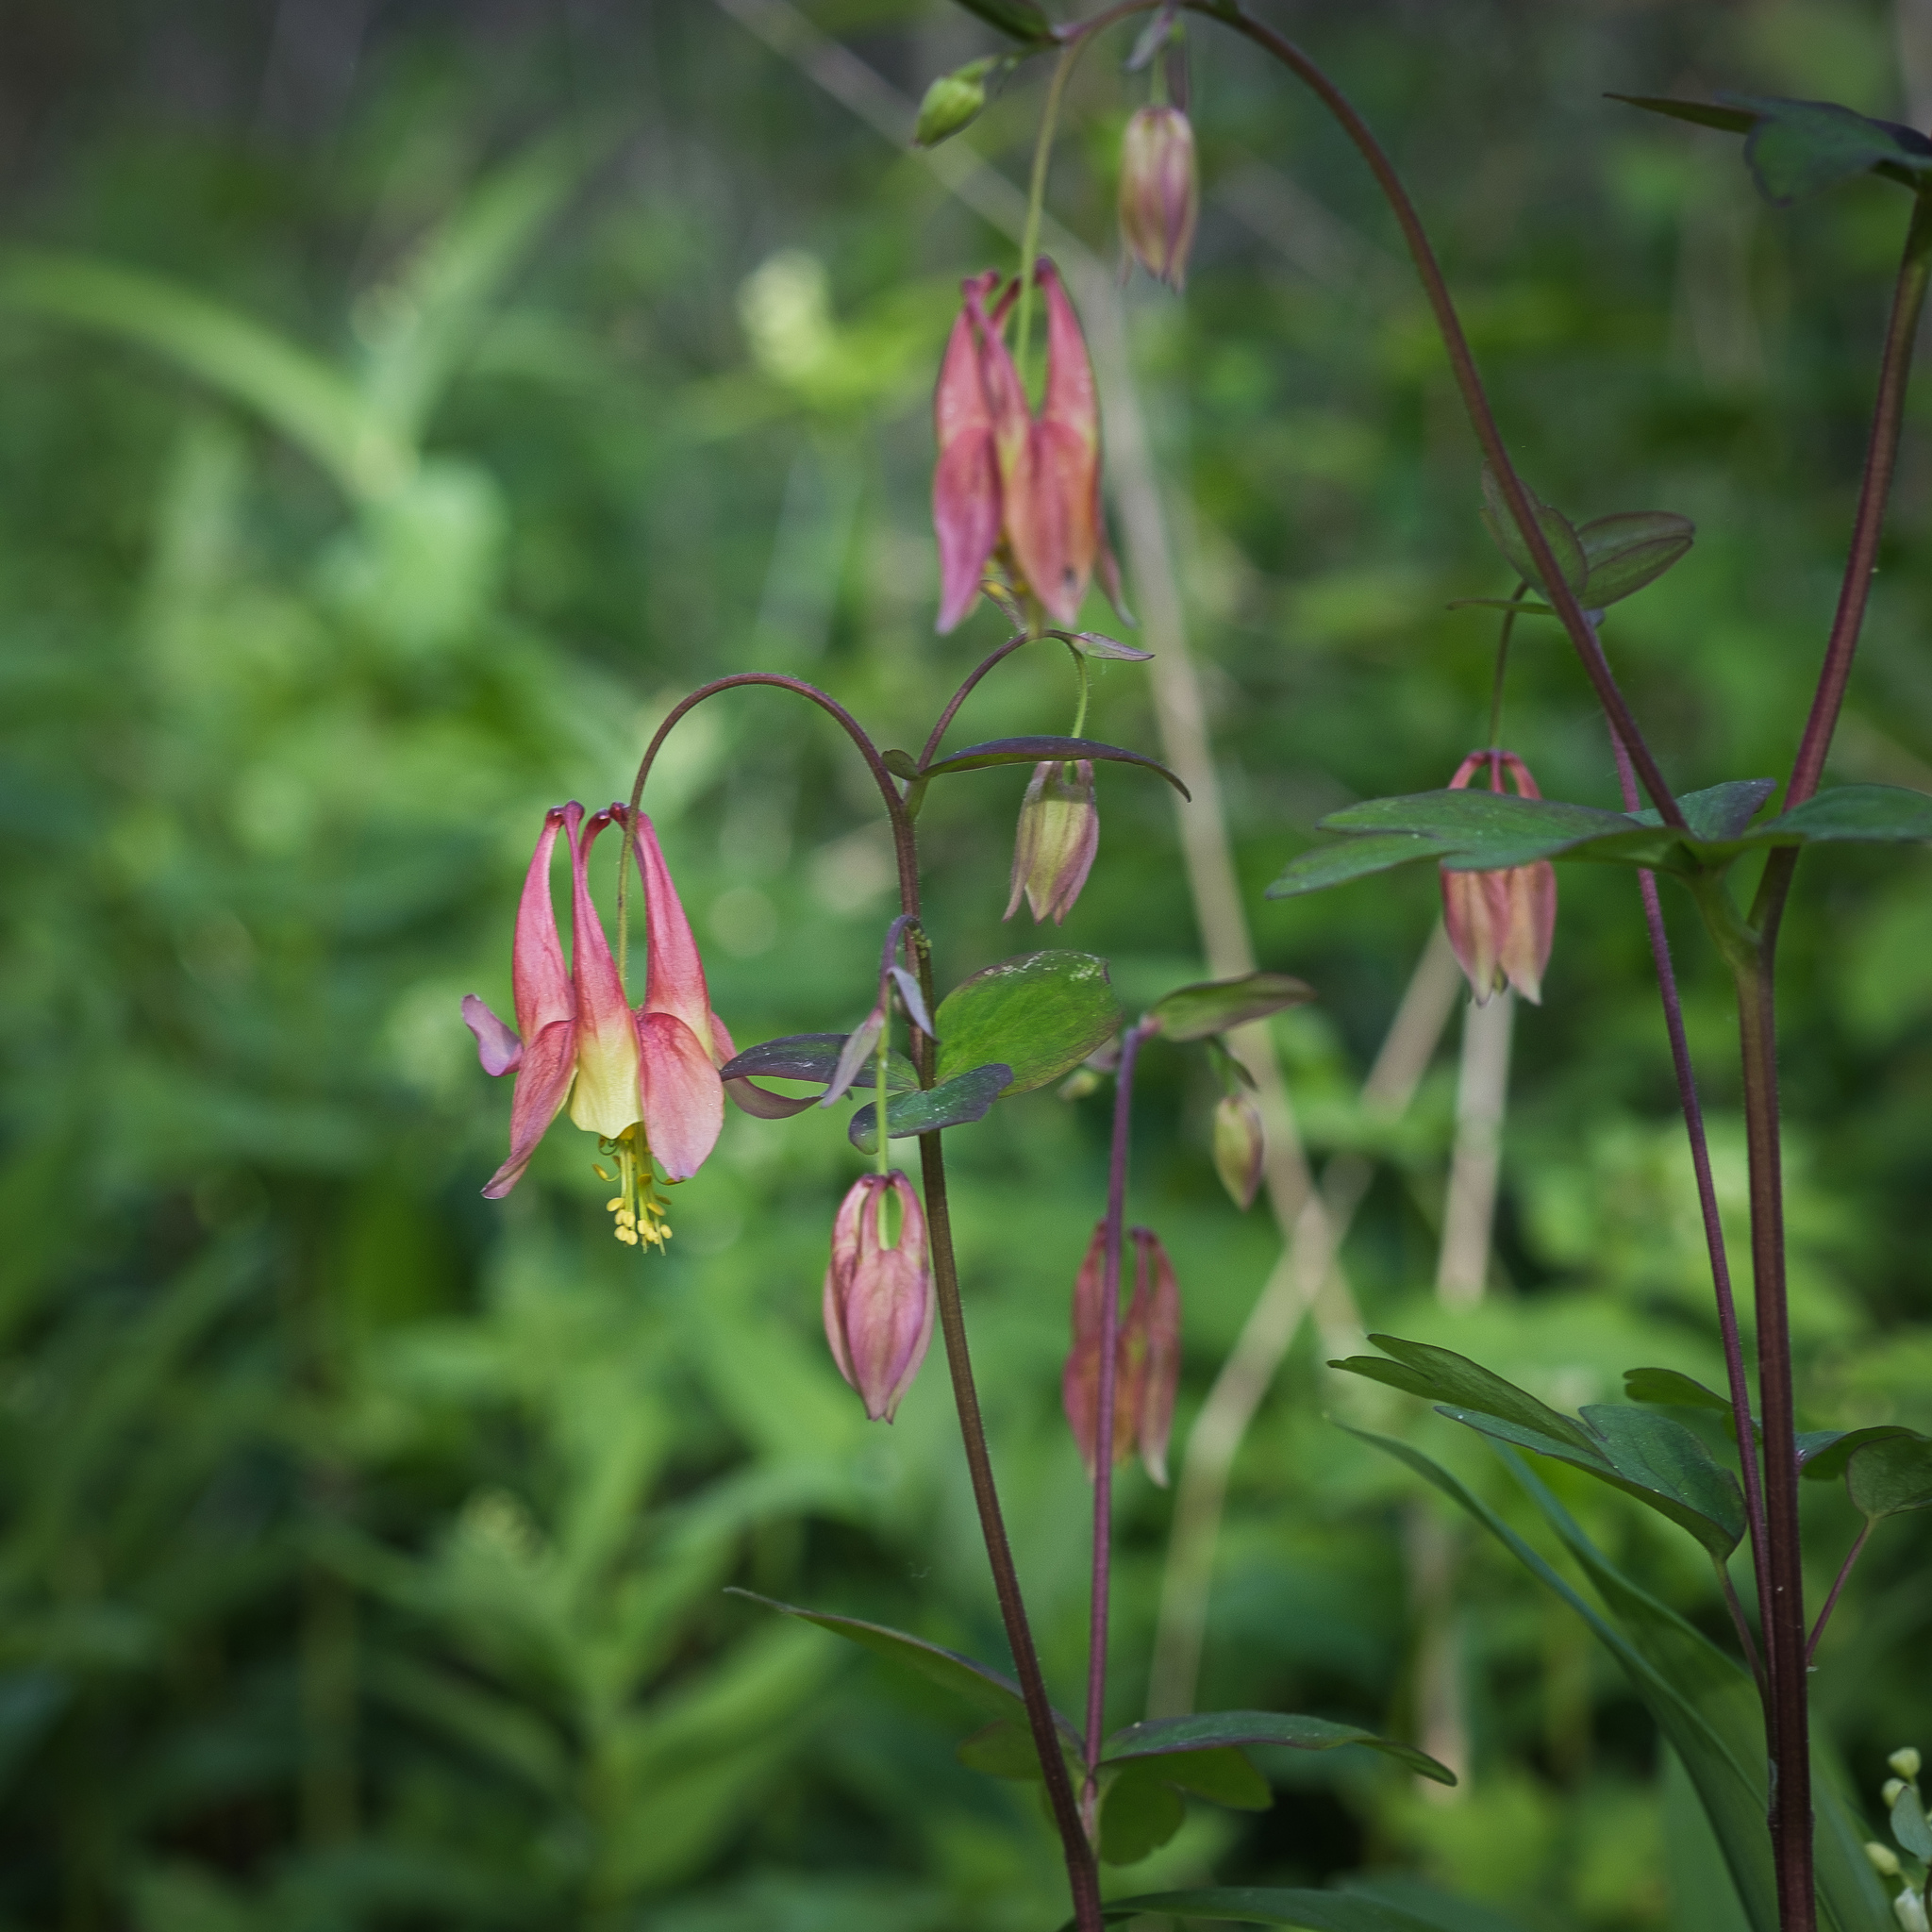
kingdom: Plantae
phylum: Tracheophyta
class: Magnoliopsida
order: Ranunculales
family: Ranunculaceae
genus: Aquilegia
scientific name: Aquilegia canadensis
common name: American columbine
